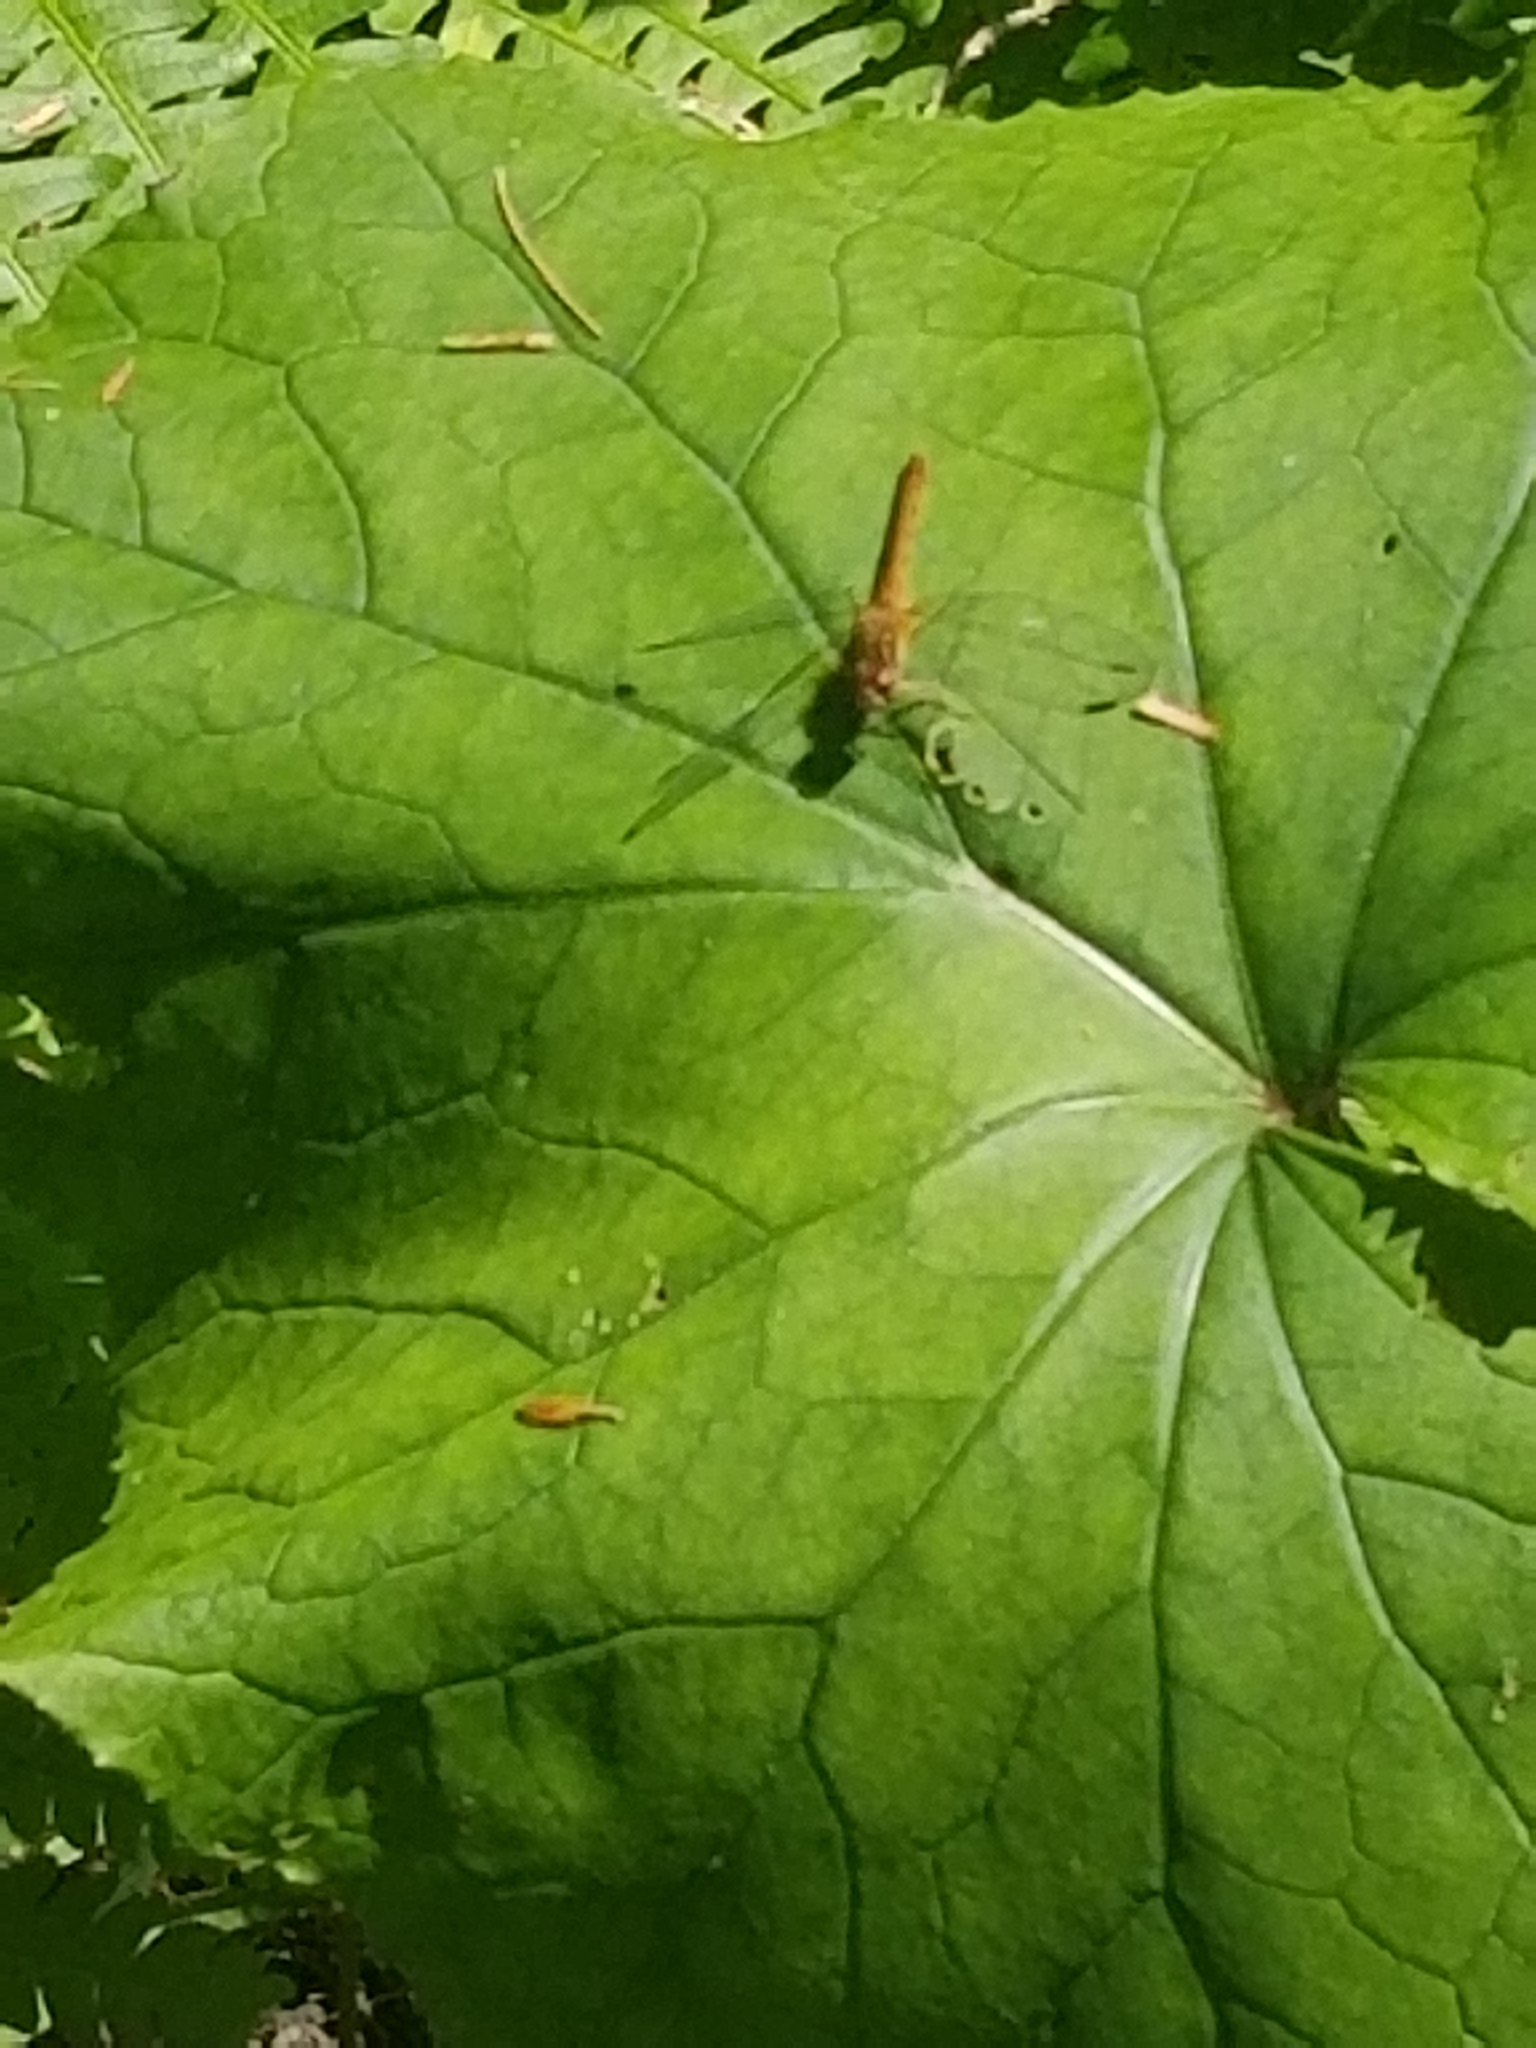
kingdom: Animalia
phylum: Arthropoda
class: Insecta
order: Odonata
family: Libellulidae
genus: Sympetrum
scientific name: Sympetrum vicinum
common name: Autumn meadowhawk
